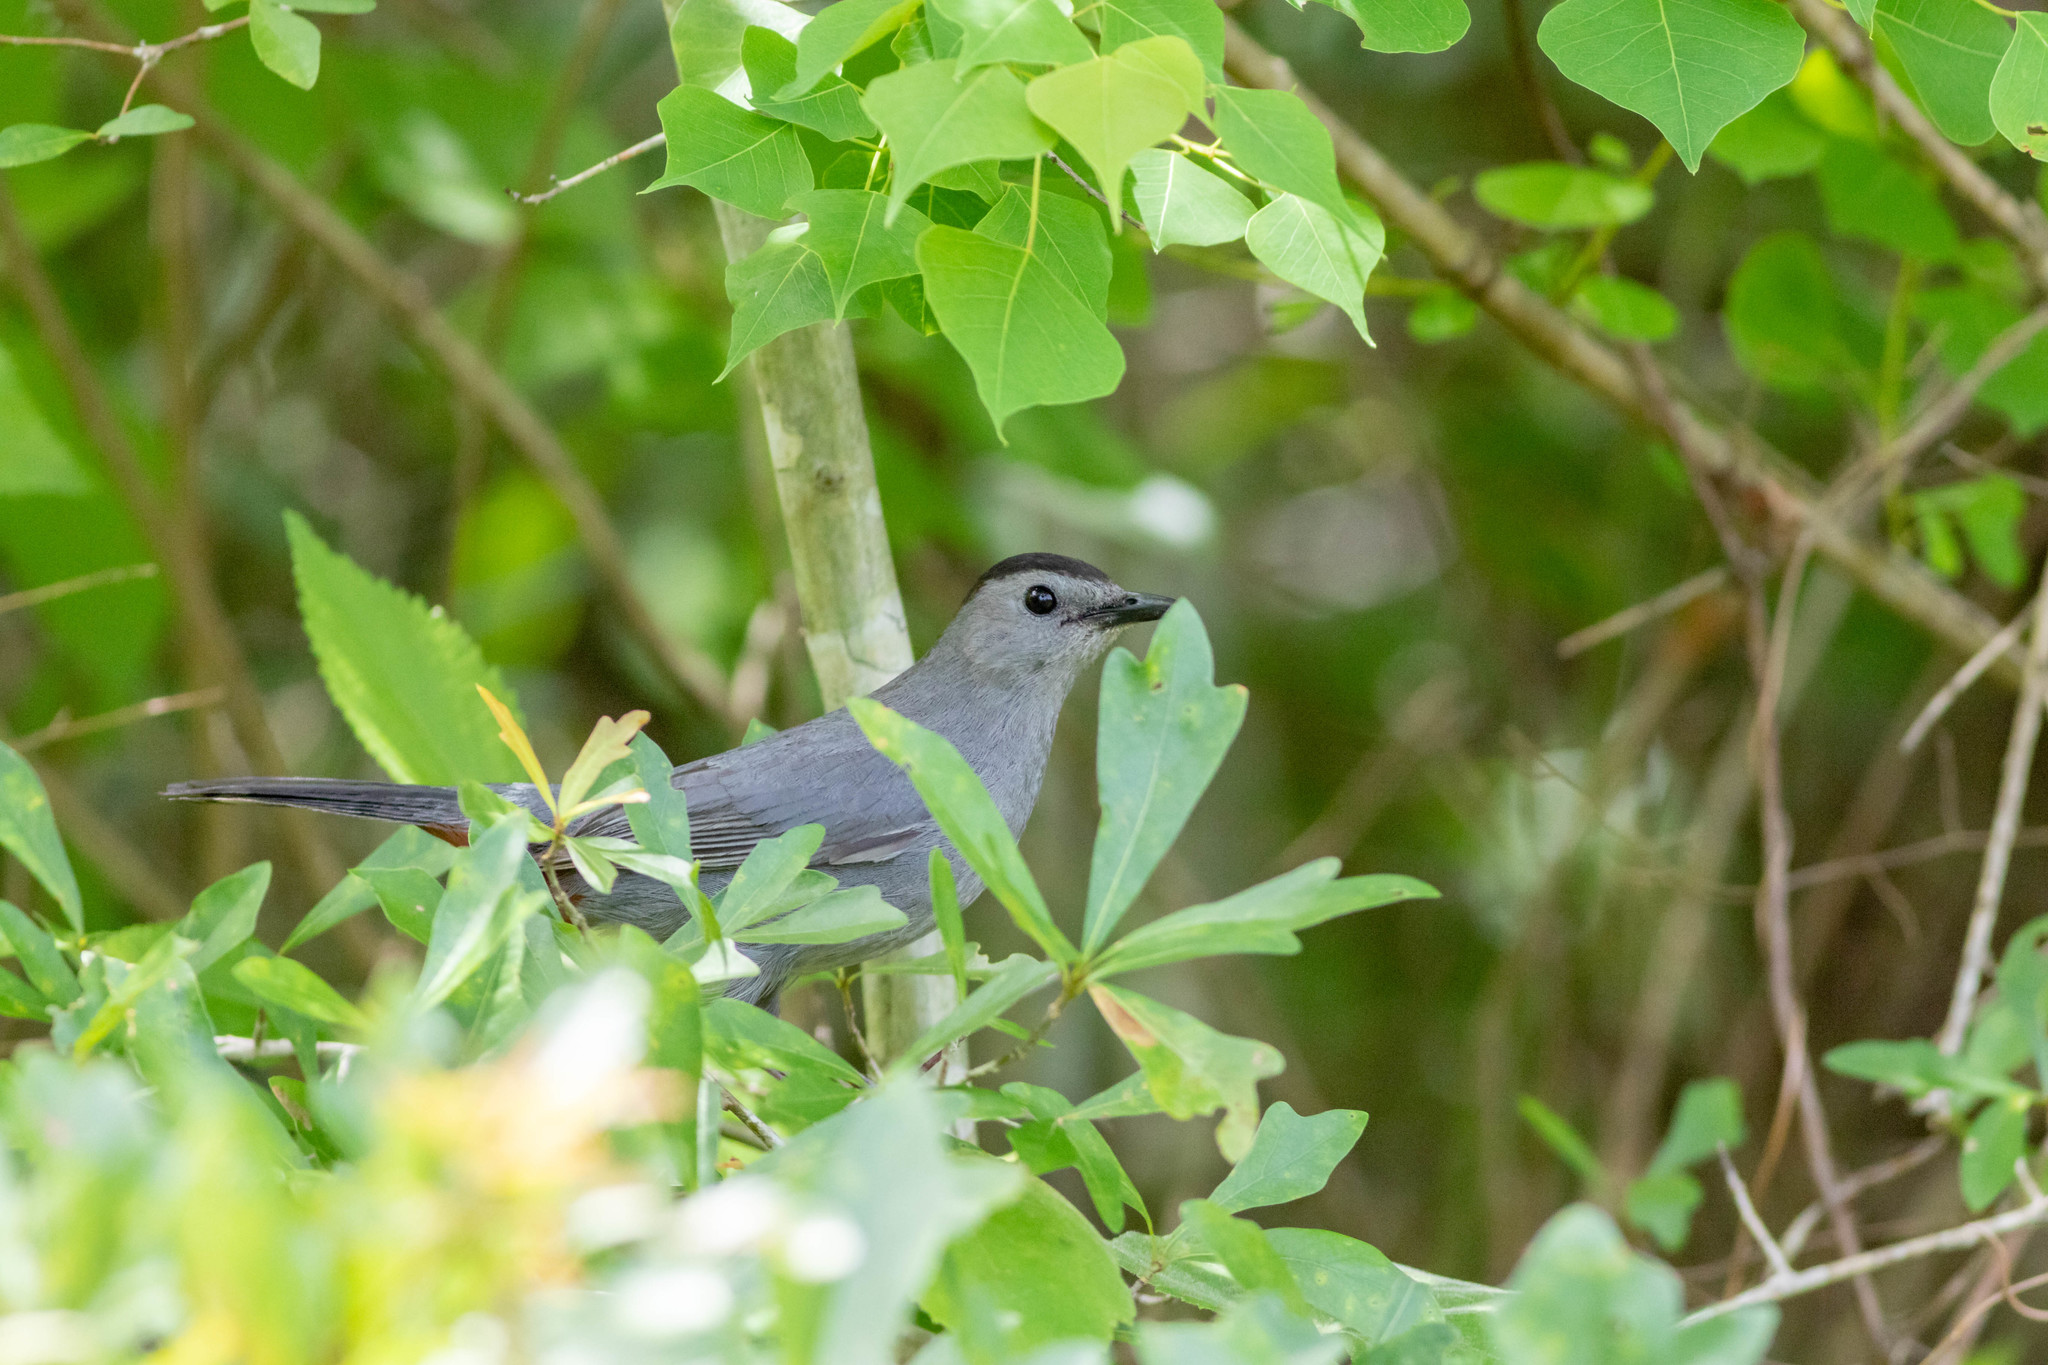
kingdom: Animalia
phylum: Chordata
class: Aves
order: Passeriformes
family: Mimidae
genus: Dumetella
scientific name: Dumetella carolinensis
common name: Gray catbird
